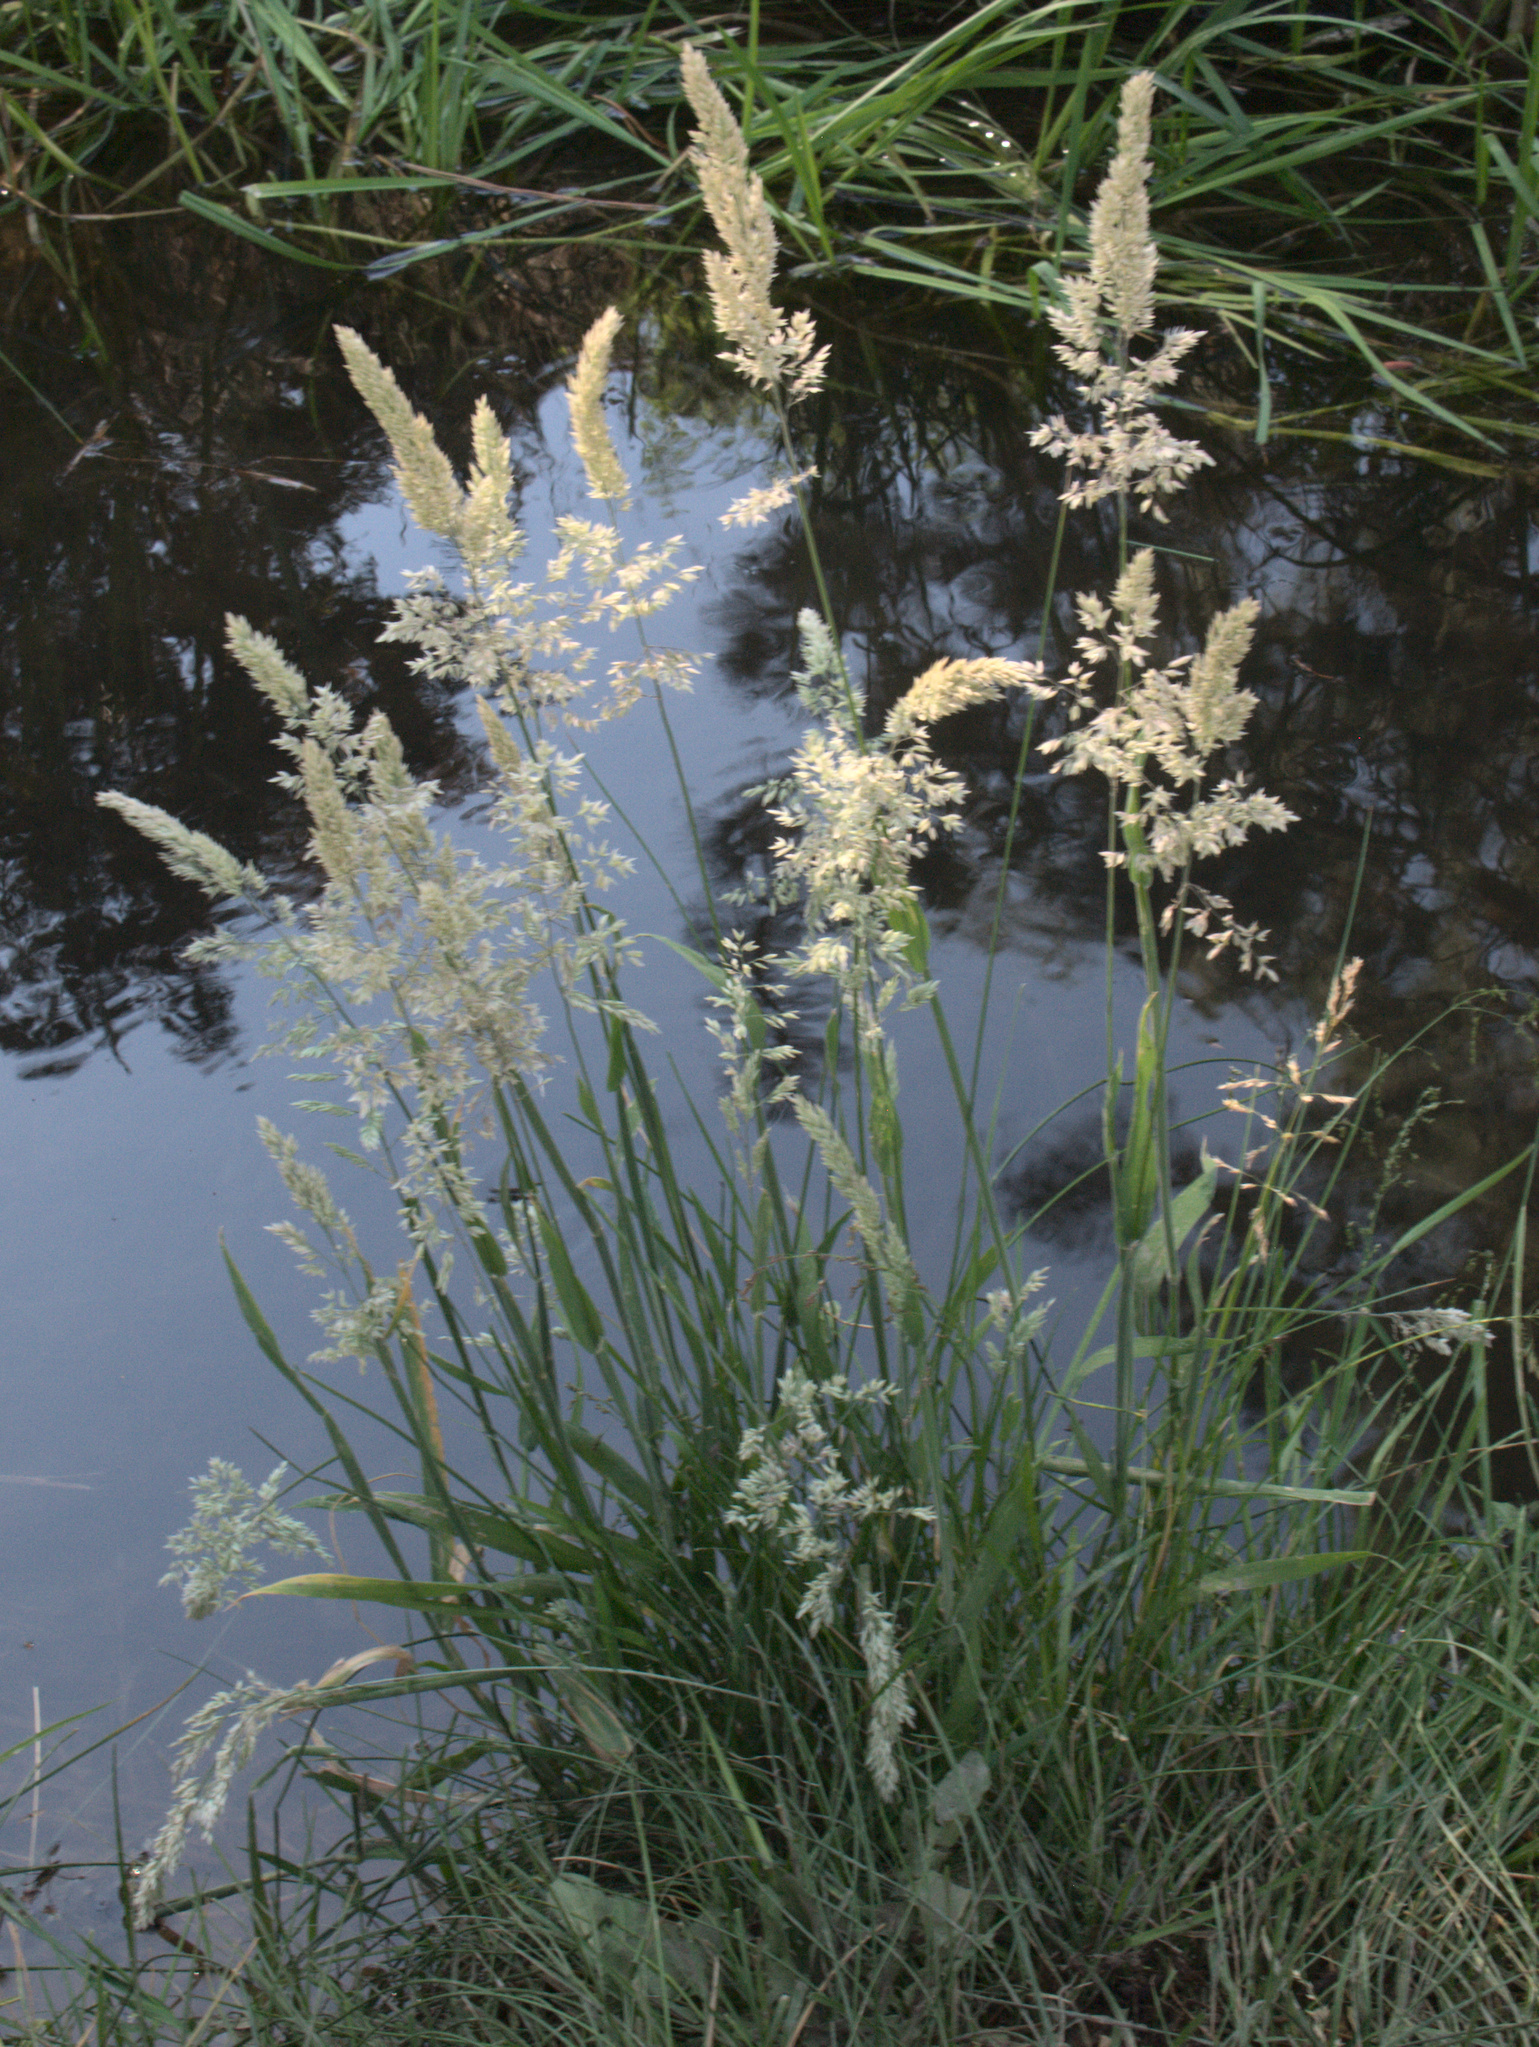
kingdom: Plantae
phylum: Tracheophyta
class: Liliopsida
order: Poales
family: Poaceae
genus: Holcus
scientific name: Holcus lanatus
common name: Yorkshire-fog
